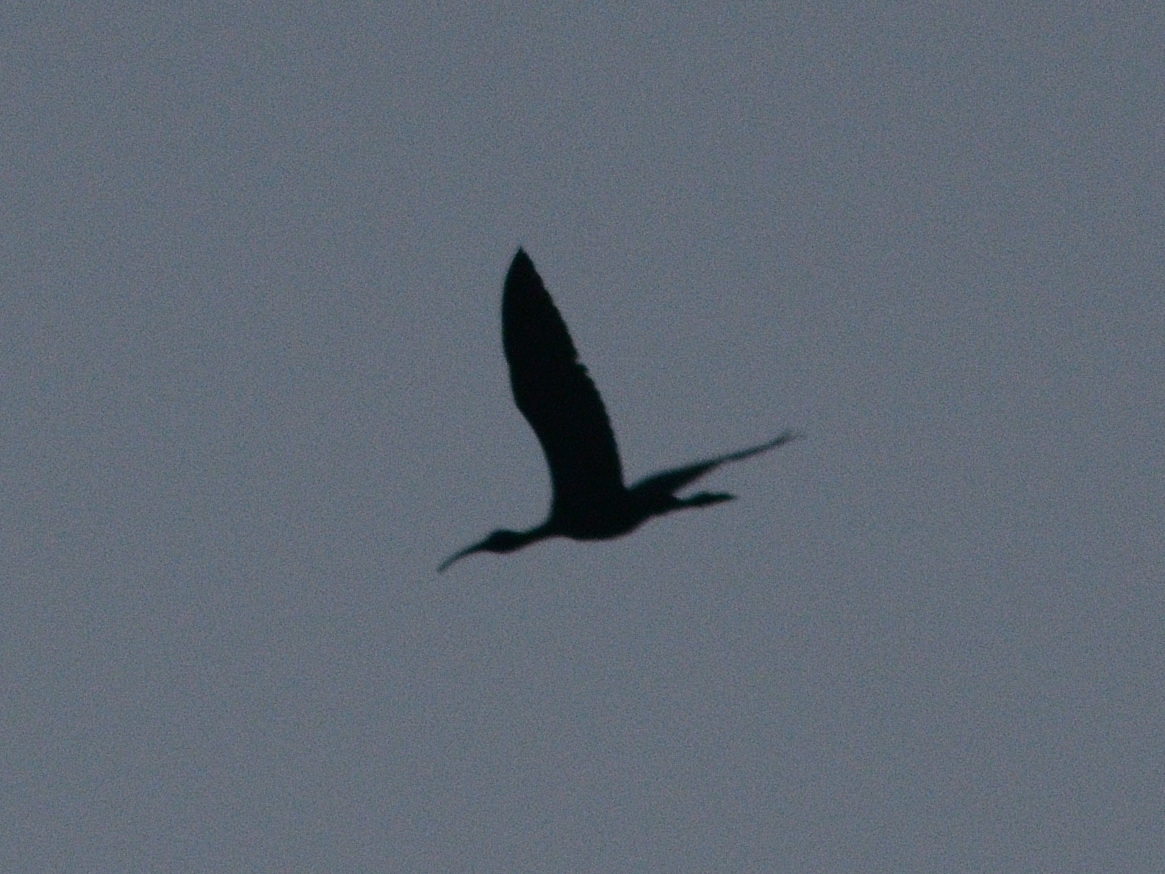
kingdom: Animalia
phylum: Chordata
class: Aves
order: Pelecaniformes
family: Threskiornithidae
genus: Plegadis
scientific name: Plegadis falcinellus
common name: Glossy ibis
